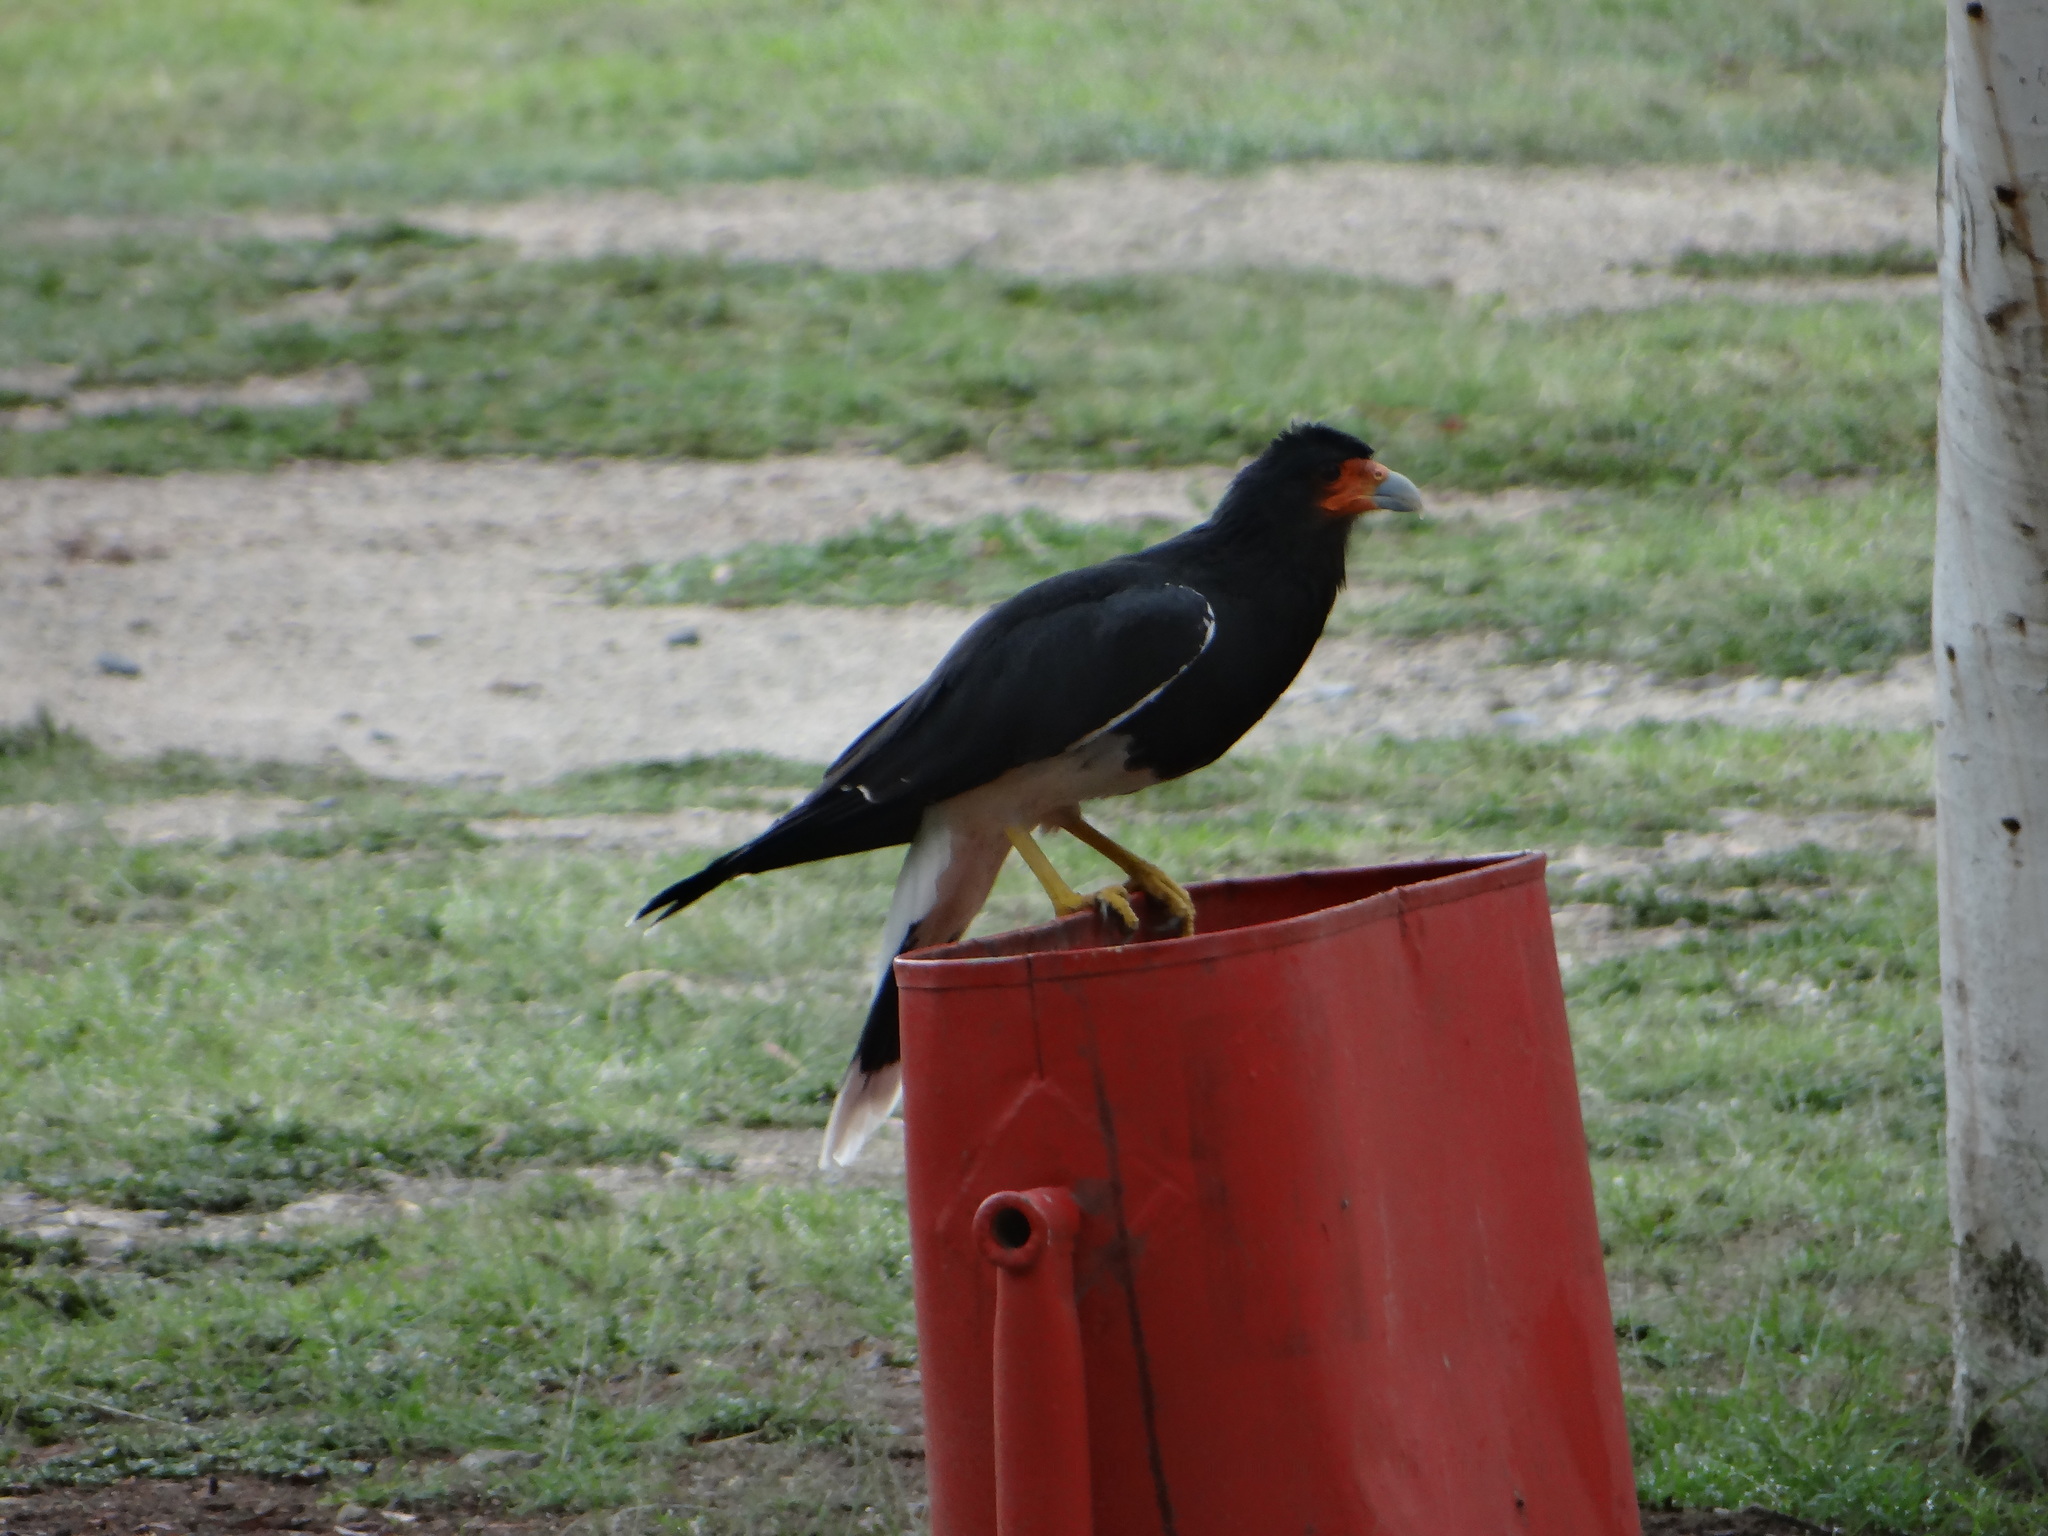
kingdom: Animalia
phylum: Chordata
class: Aves
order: Falconiformes
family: Falconidae
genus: Daptrius
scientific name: Daptrius
